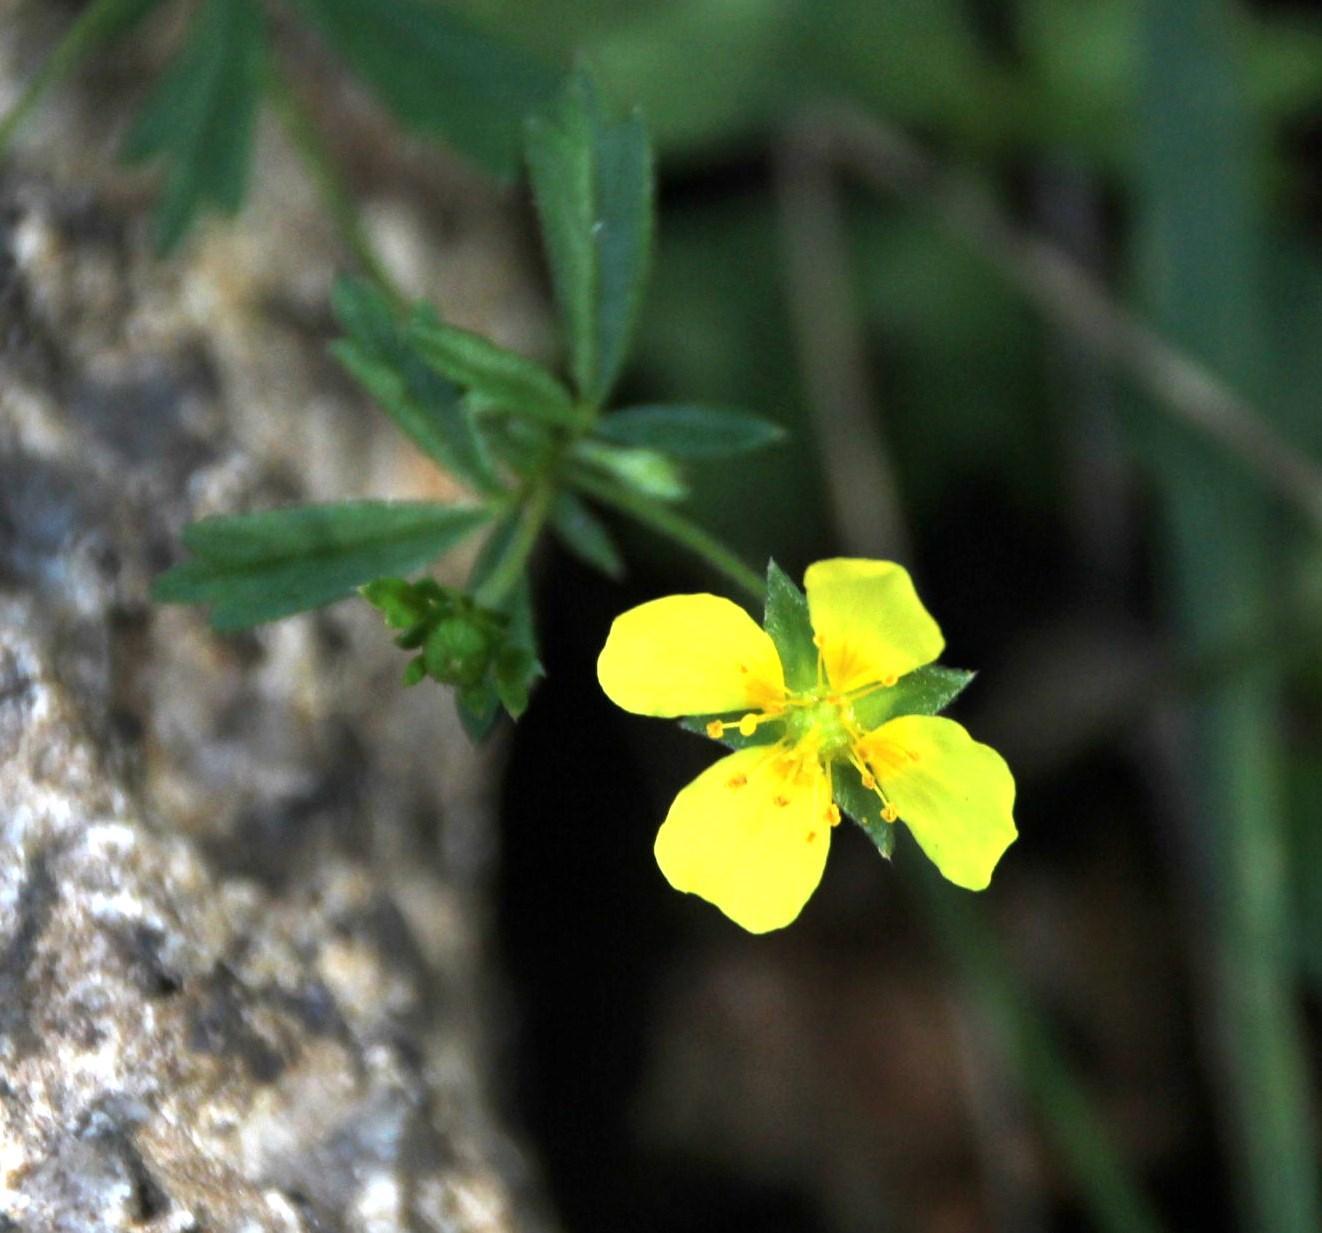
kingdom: Plantae
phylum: Tracheophyta
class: Magnoliopsida
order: Rosales
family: Rosaceae
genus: Potentilla
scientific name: Potentilla erecta
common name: Tormentil
